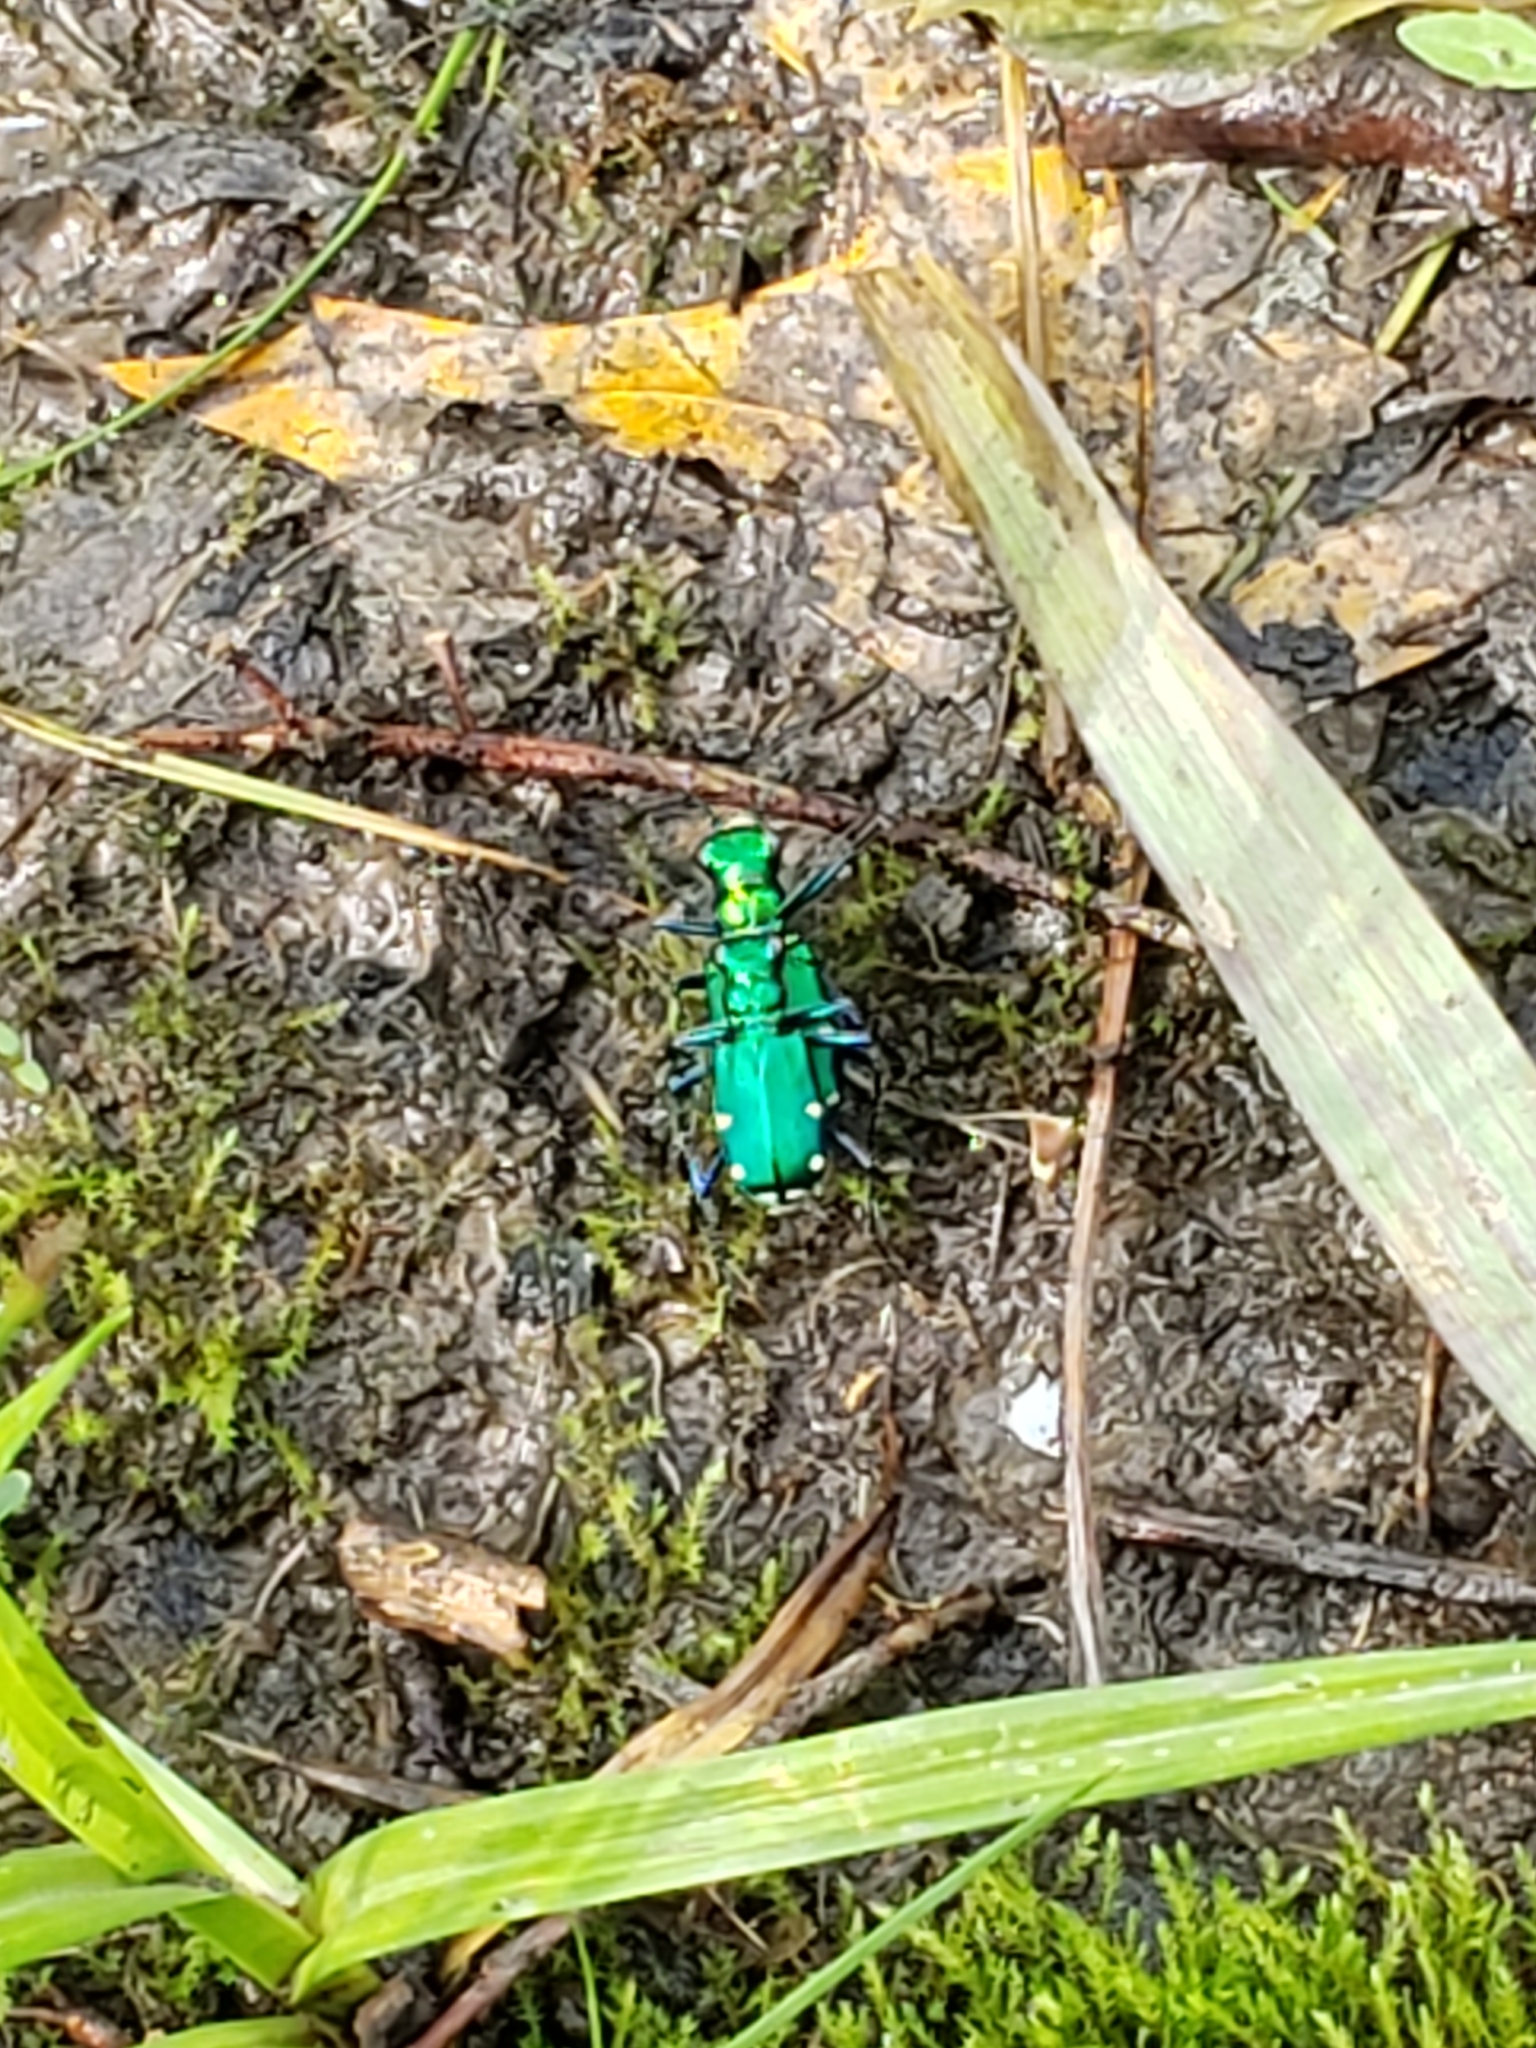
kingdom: Animalia
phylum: Arthropoda
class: Insecta
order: Coleoptera
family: Carabidae
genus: Cicindela
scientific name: Cicindela sexguttata
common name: Six-spotted tiger beetle
